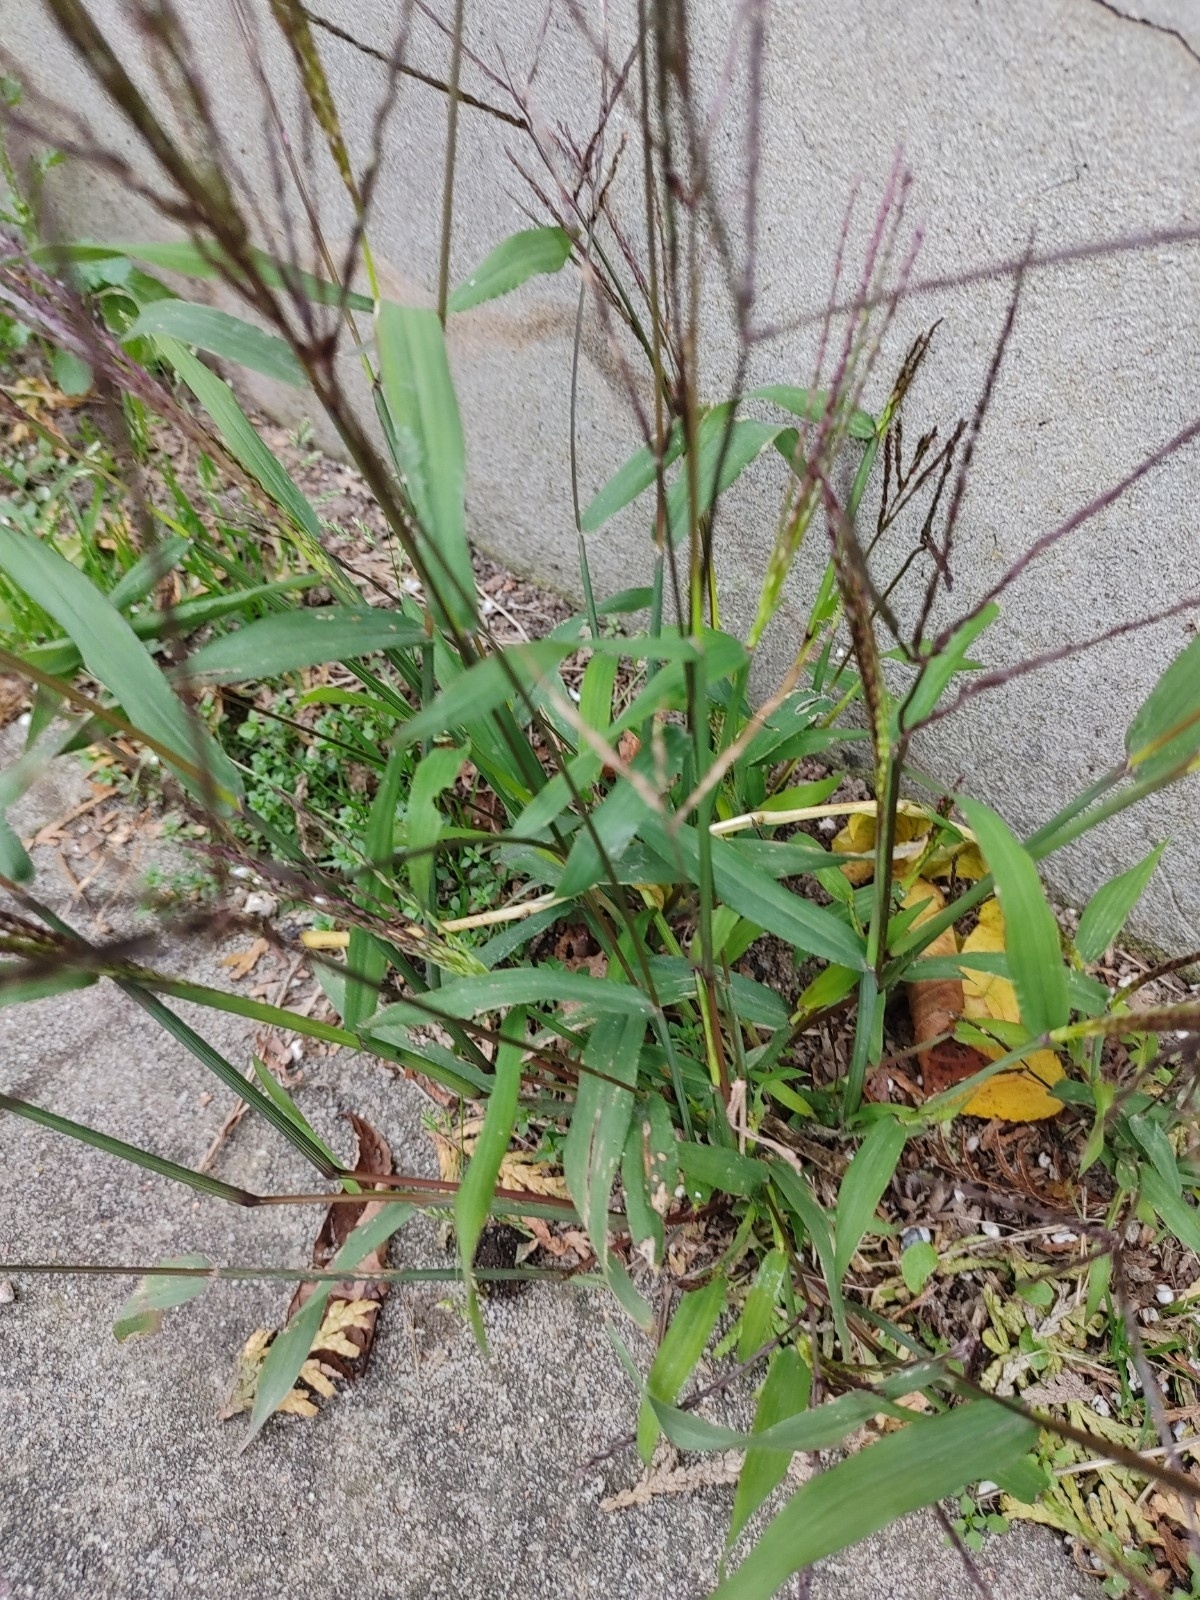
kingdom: Plantae
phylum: Tracheophyta
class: Liliopsida
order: Poales
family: Poaceae
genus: Digitaria
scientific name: Digitaria sanguinalis
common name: Hairy crabgrass
